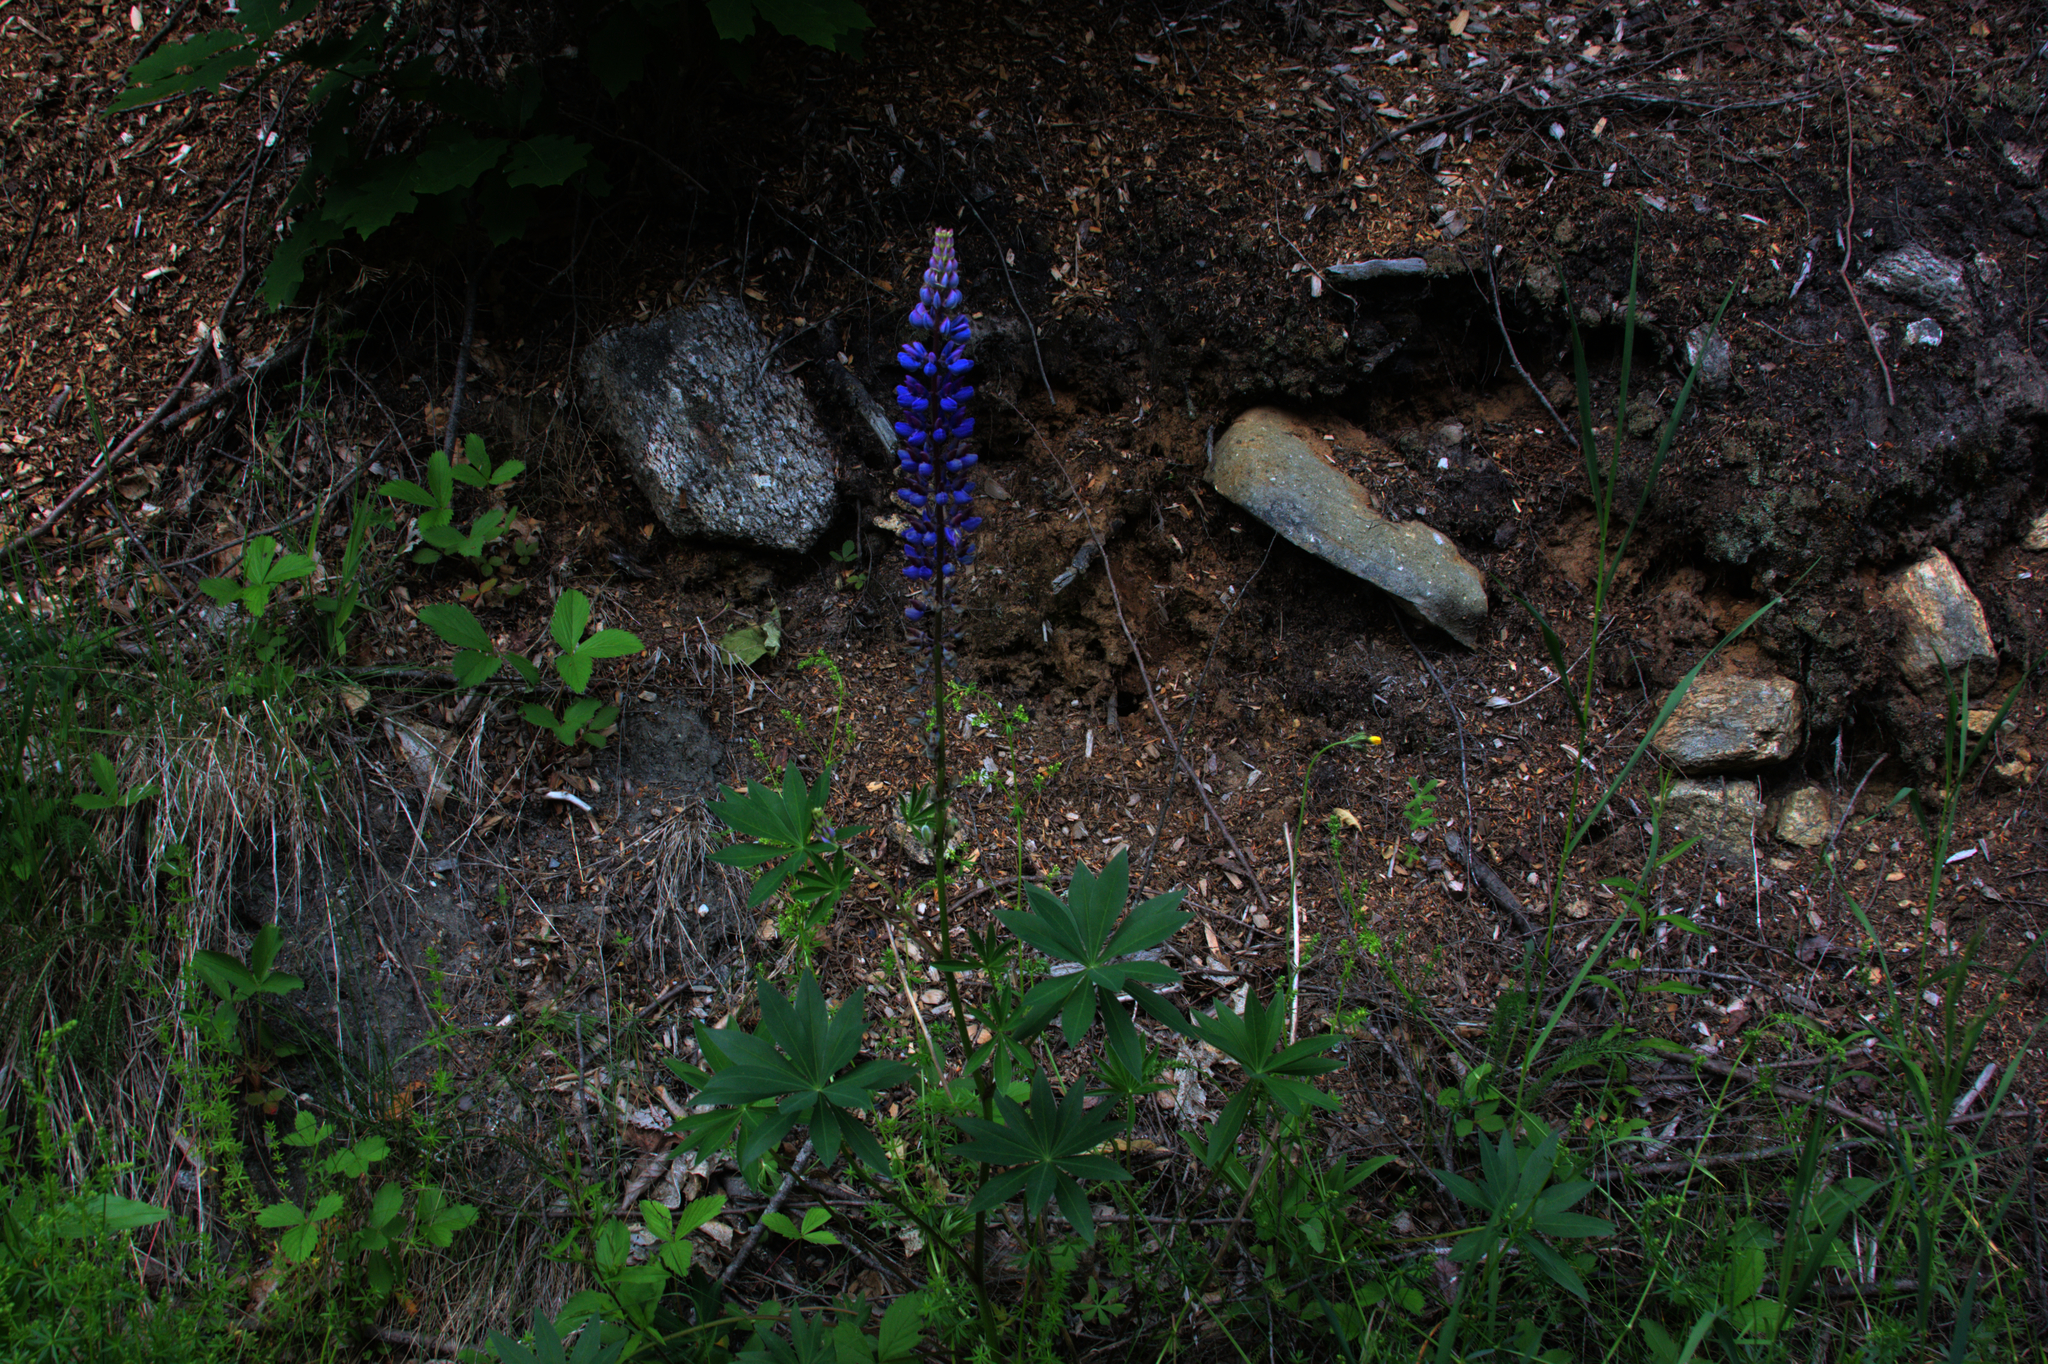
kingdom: Plantae
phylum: Tracheophyta
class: Magnoliopsida
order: Fabales
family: Fabaceae
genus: Lupinus
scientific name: Lupinus polyphyllus
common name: Garden lupin
